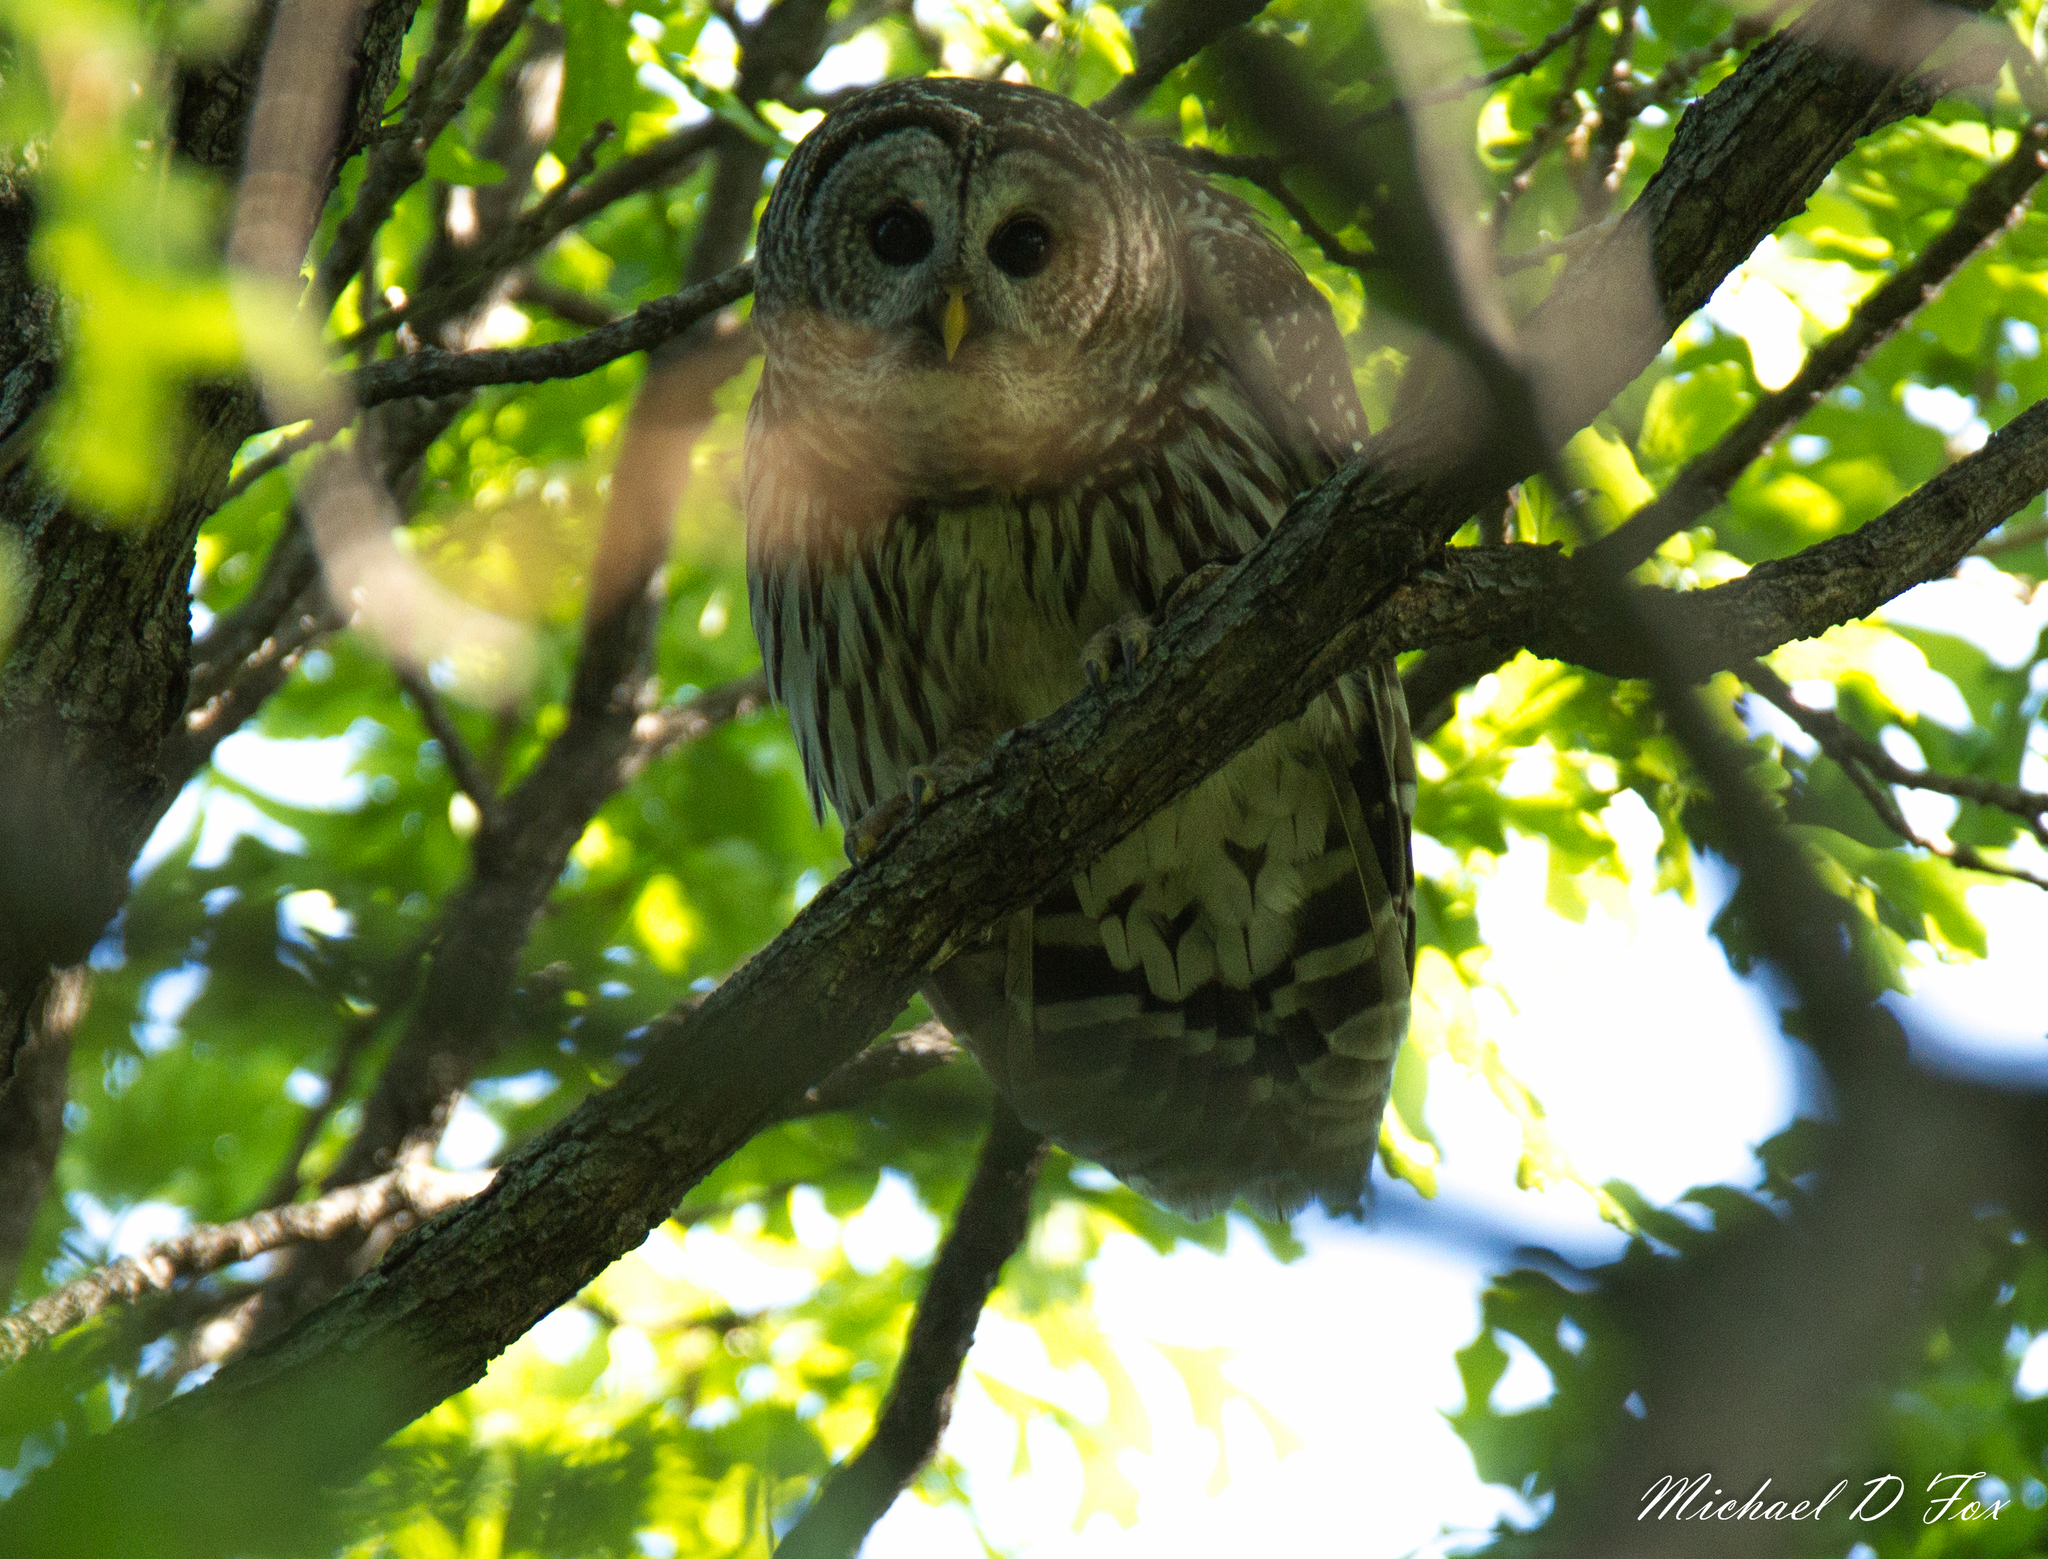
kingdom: Animalia
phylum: Chordata
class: Aves
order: Strigiformes
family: Strigidae
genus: Strix
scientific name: Strix varia
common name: Barred owl
